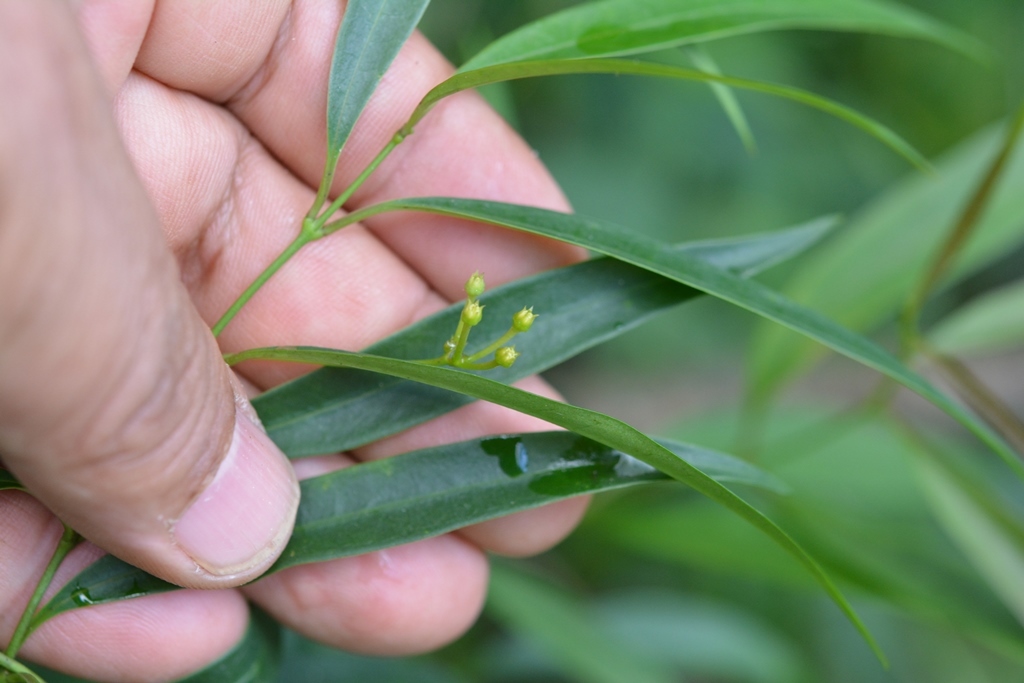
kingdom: Plantae
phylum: Tracheophyta
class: Magnoliopsida
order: Gentianales
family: Apocynaceae
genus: Thenardia
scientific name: Thenardia chiapensis
